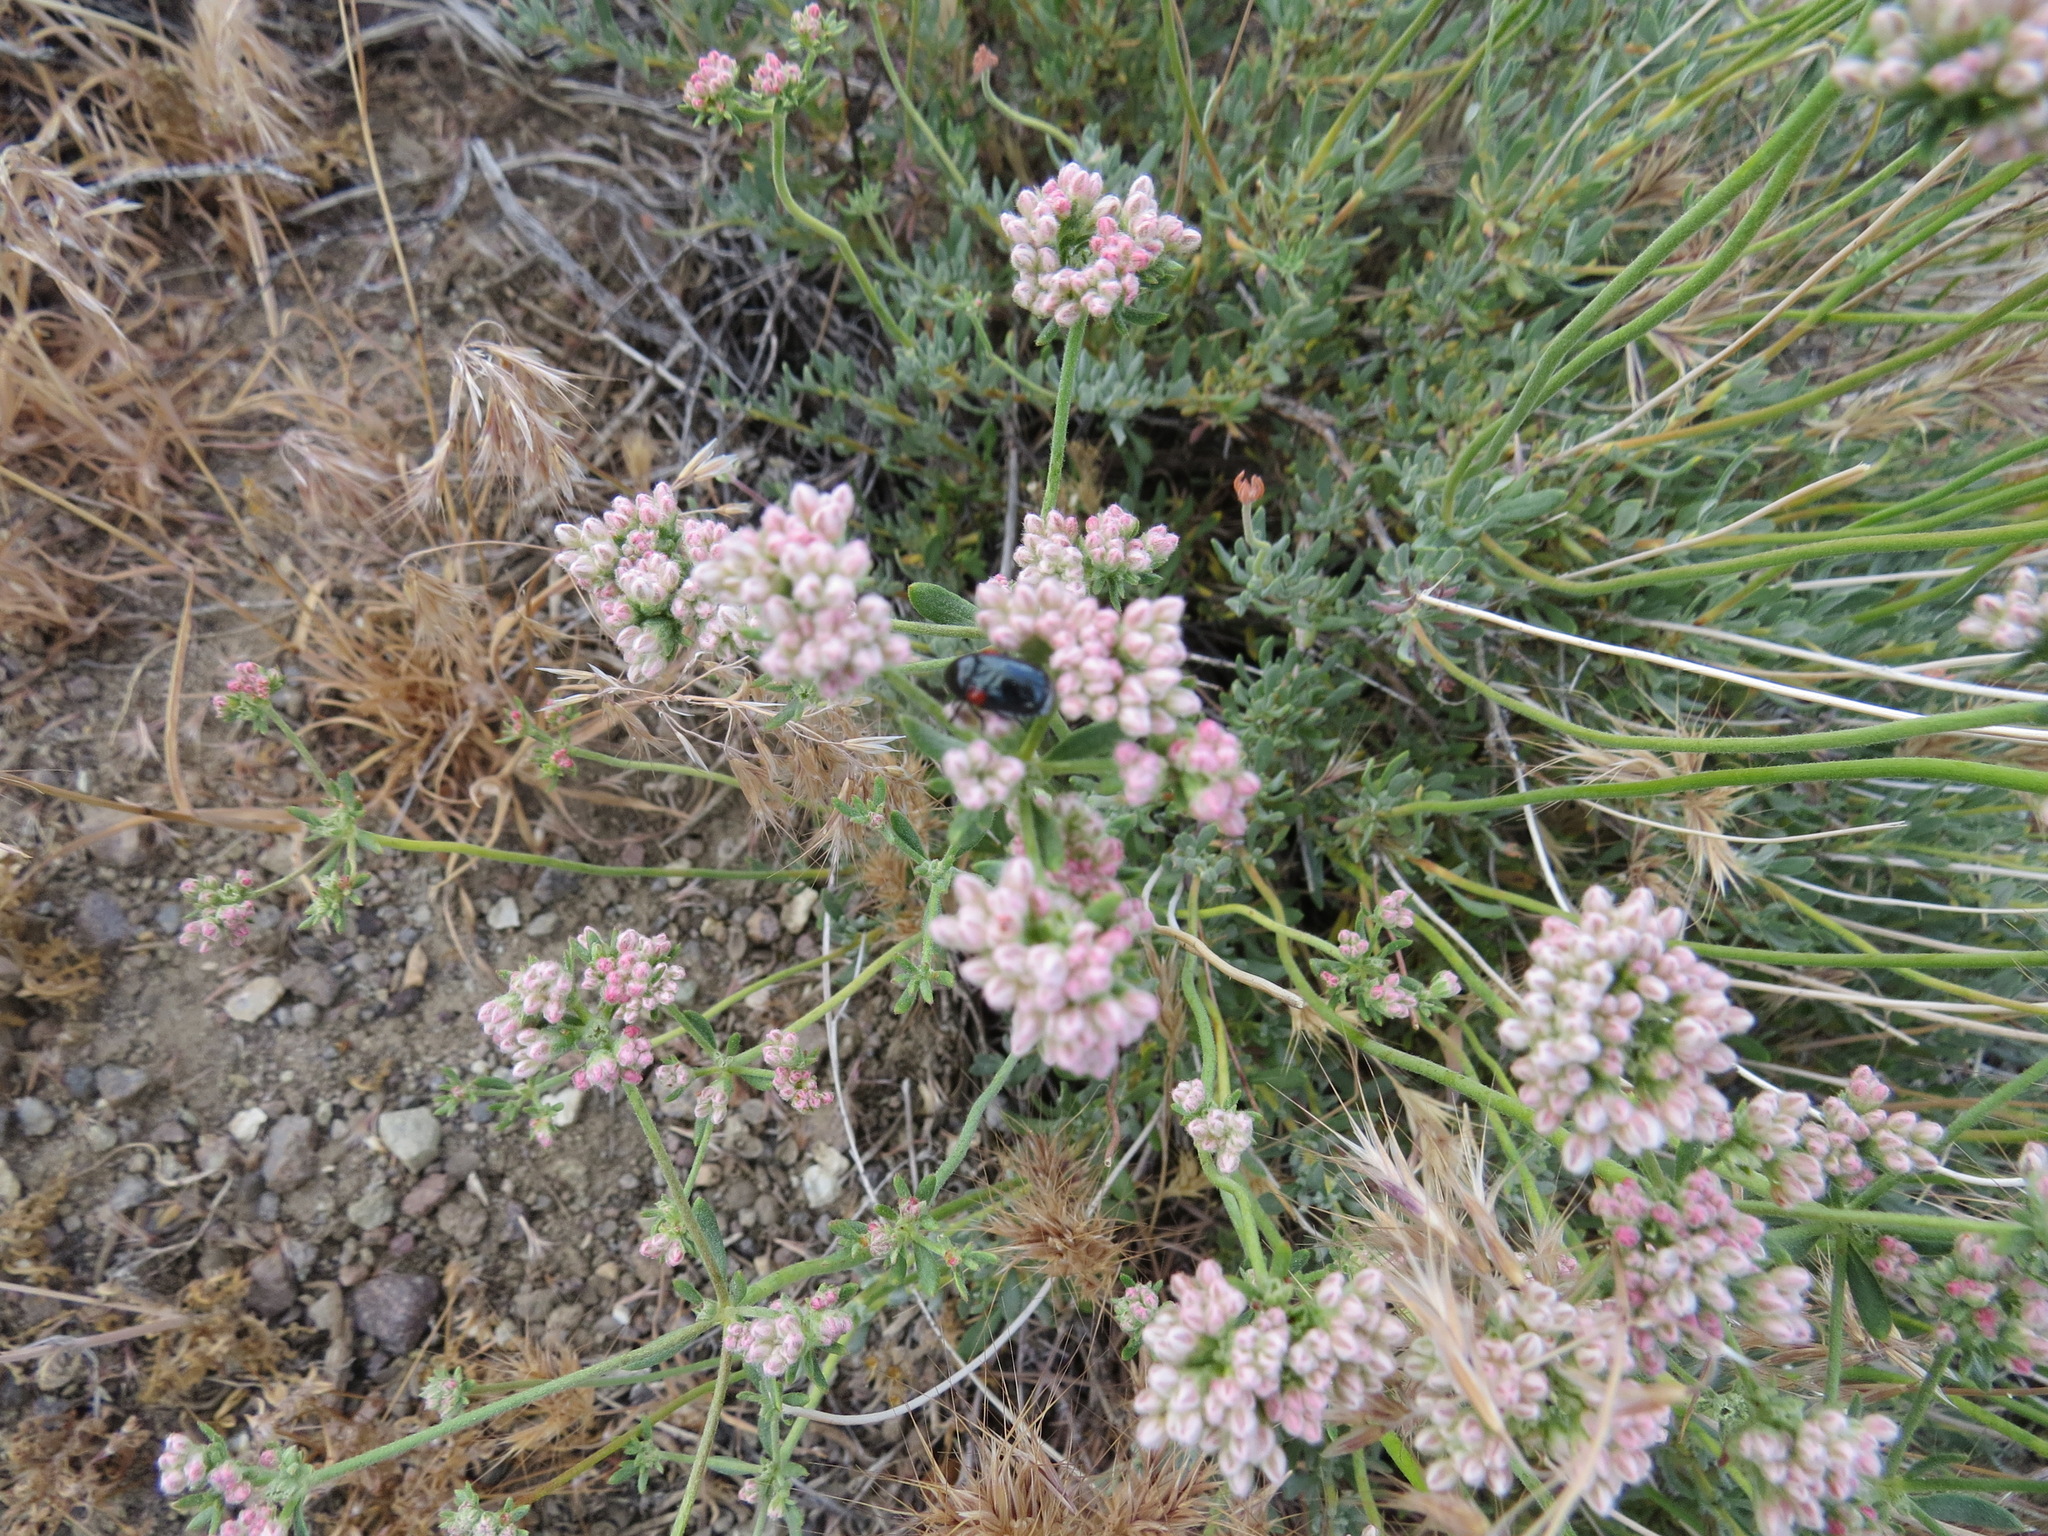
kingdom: Animalia
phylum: Arthropoda
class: Insecta
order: Coleoptera
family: Chrysomelidae
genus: Saxinis
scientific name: Saxinis saucia
